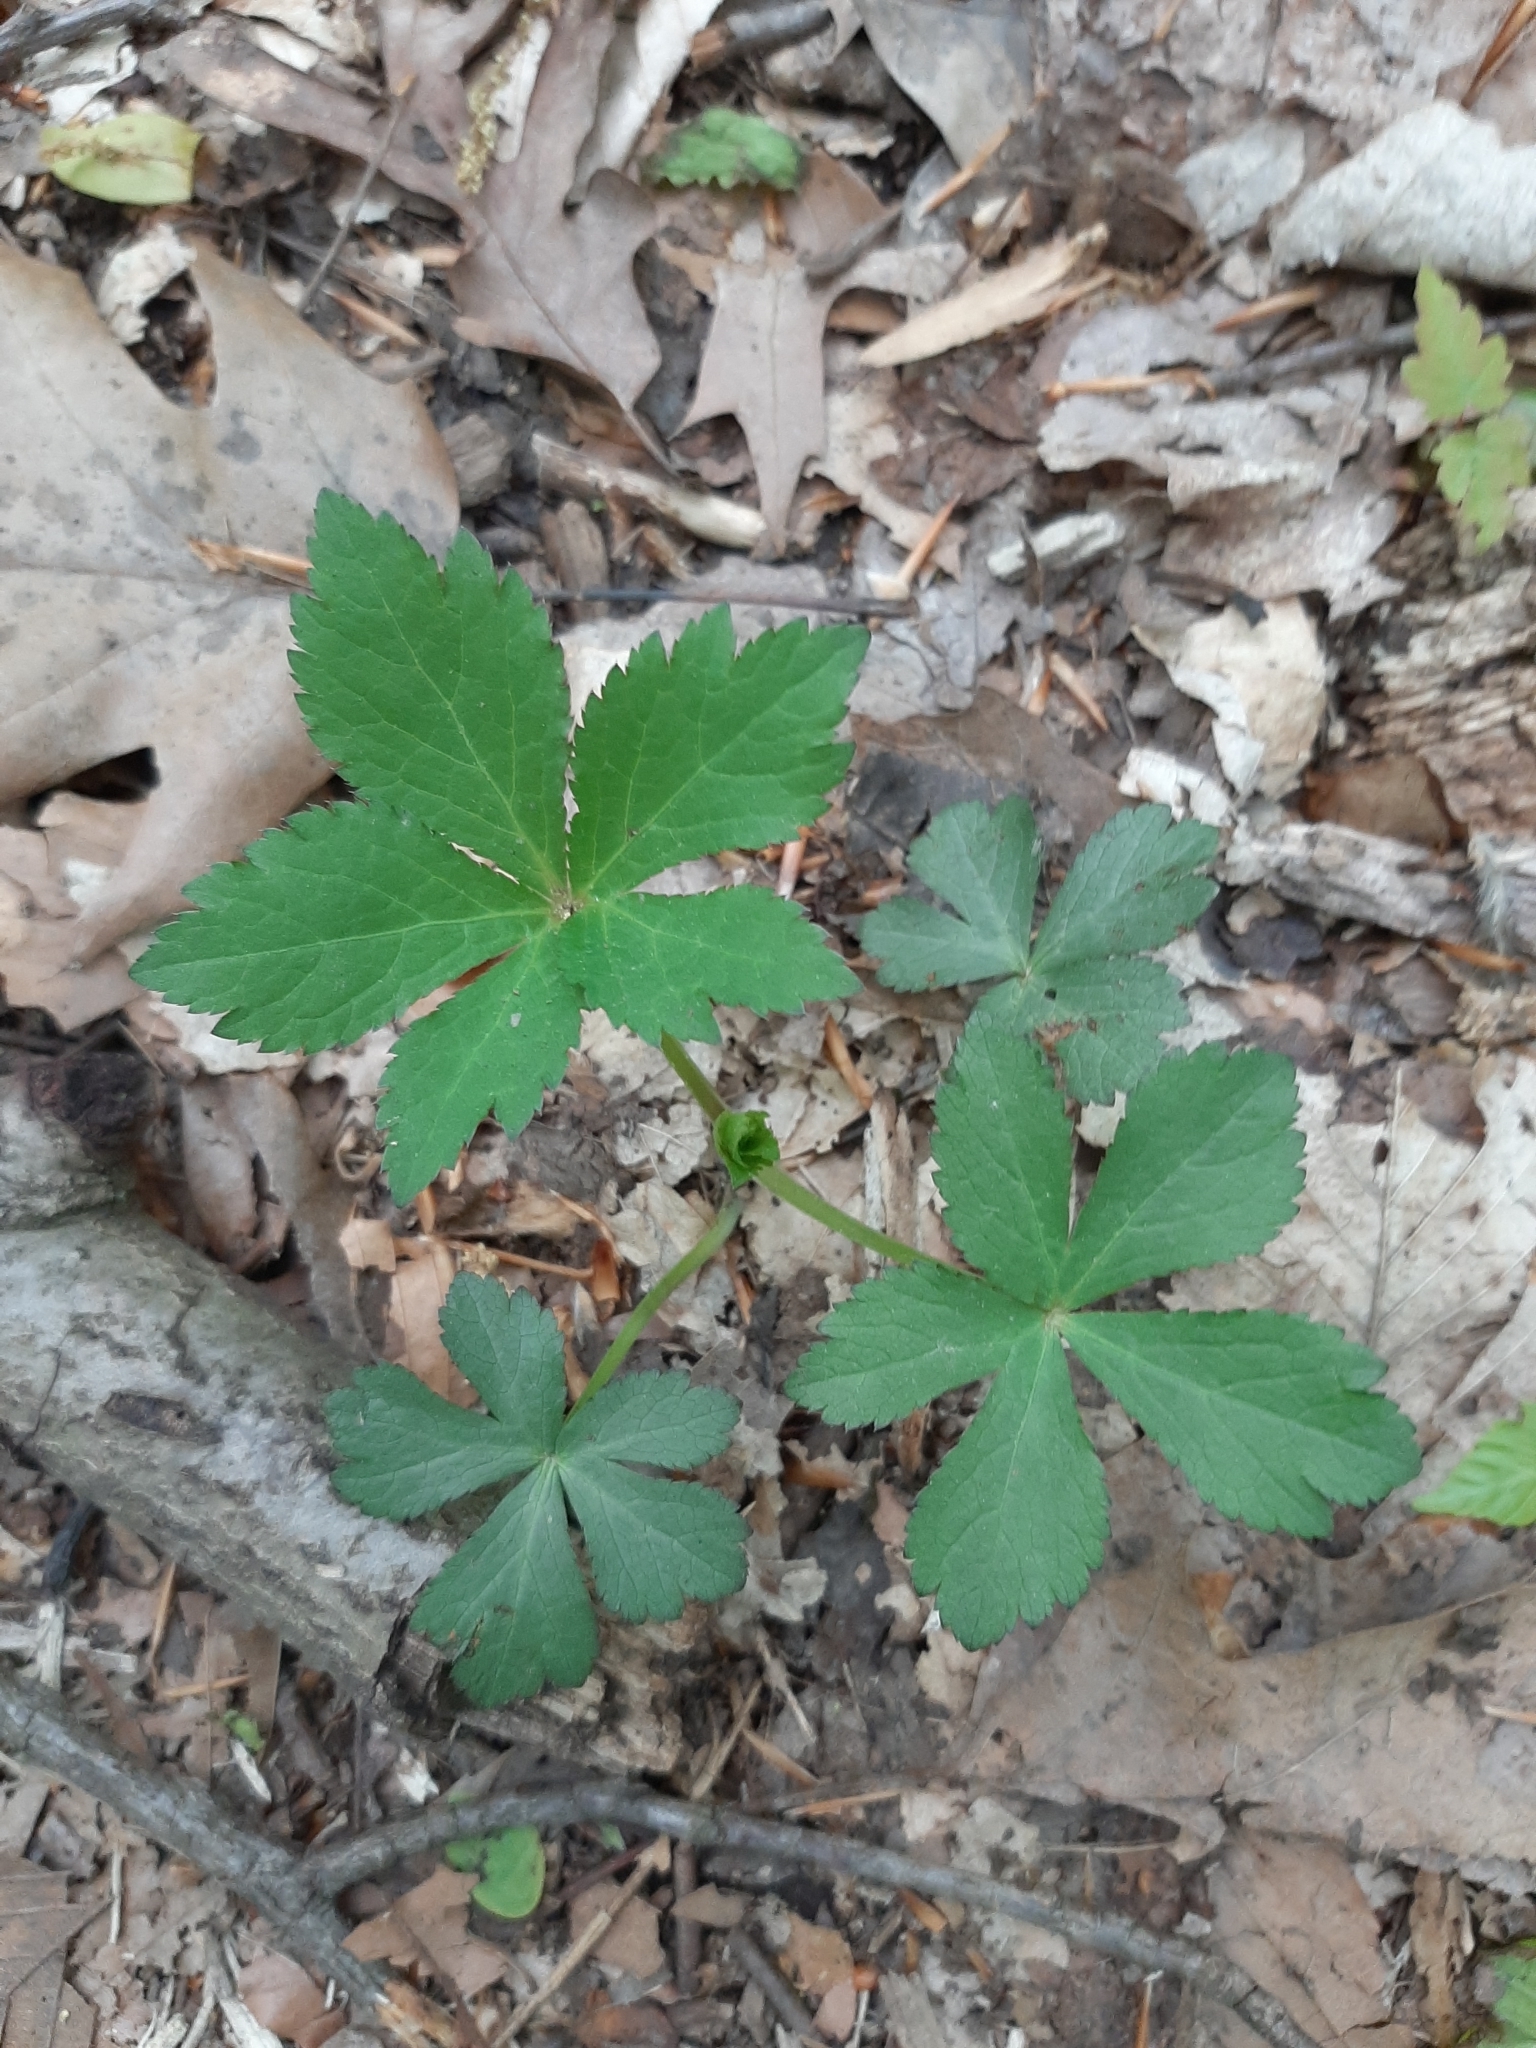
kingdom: Plantae
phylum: Tracheophyta
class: Magnoliopsida
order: Apiales
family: Apiaceae
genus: Sanicula
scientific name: Sanicula canadensis
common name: Canada sanicle
